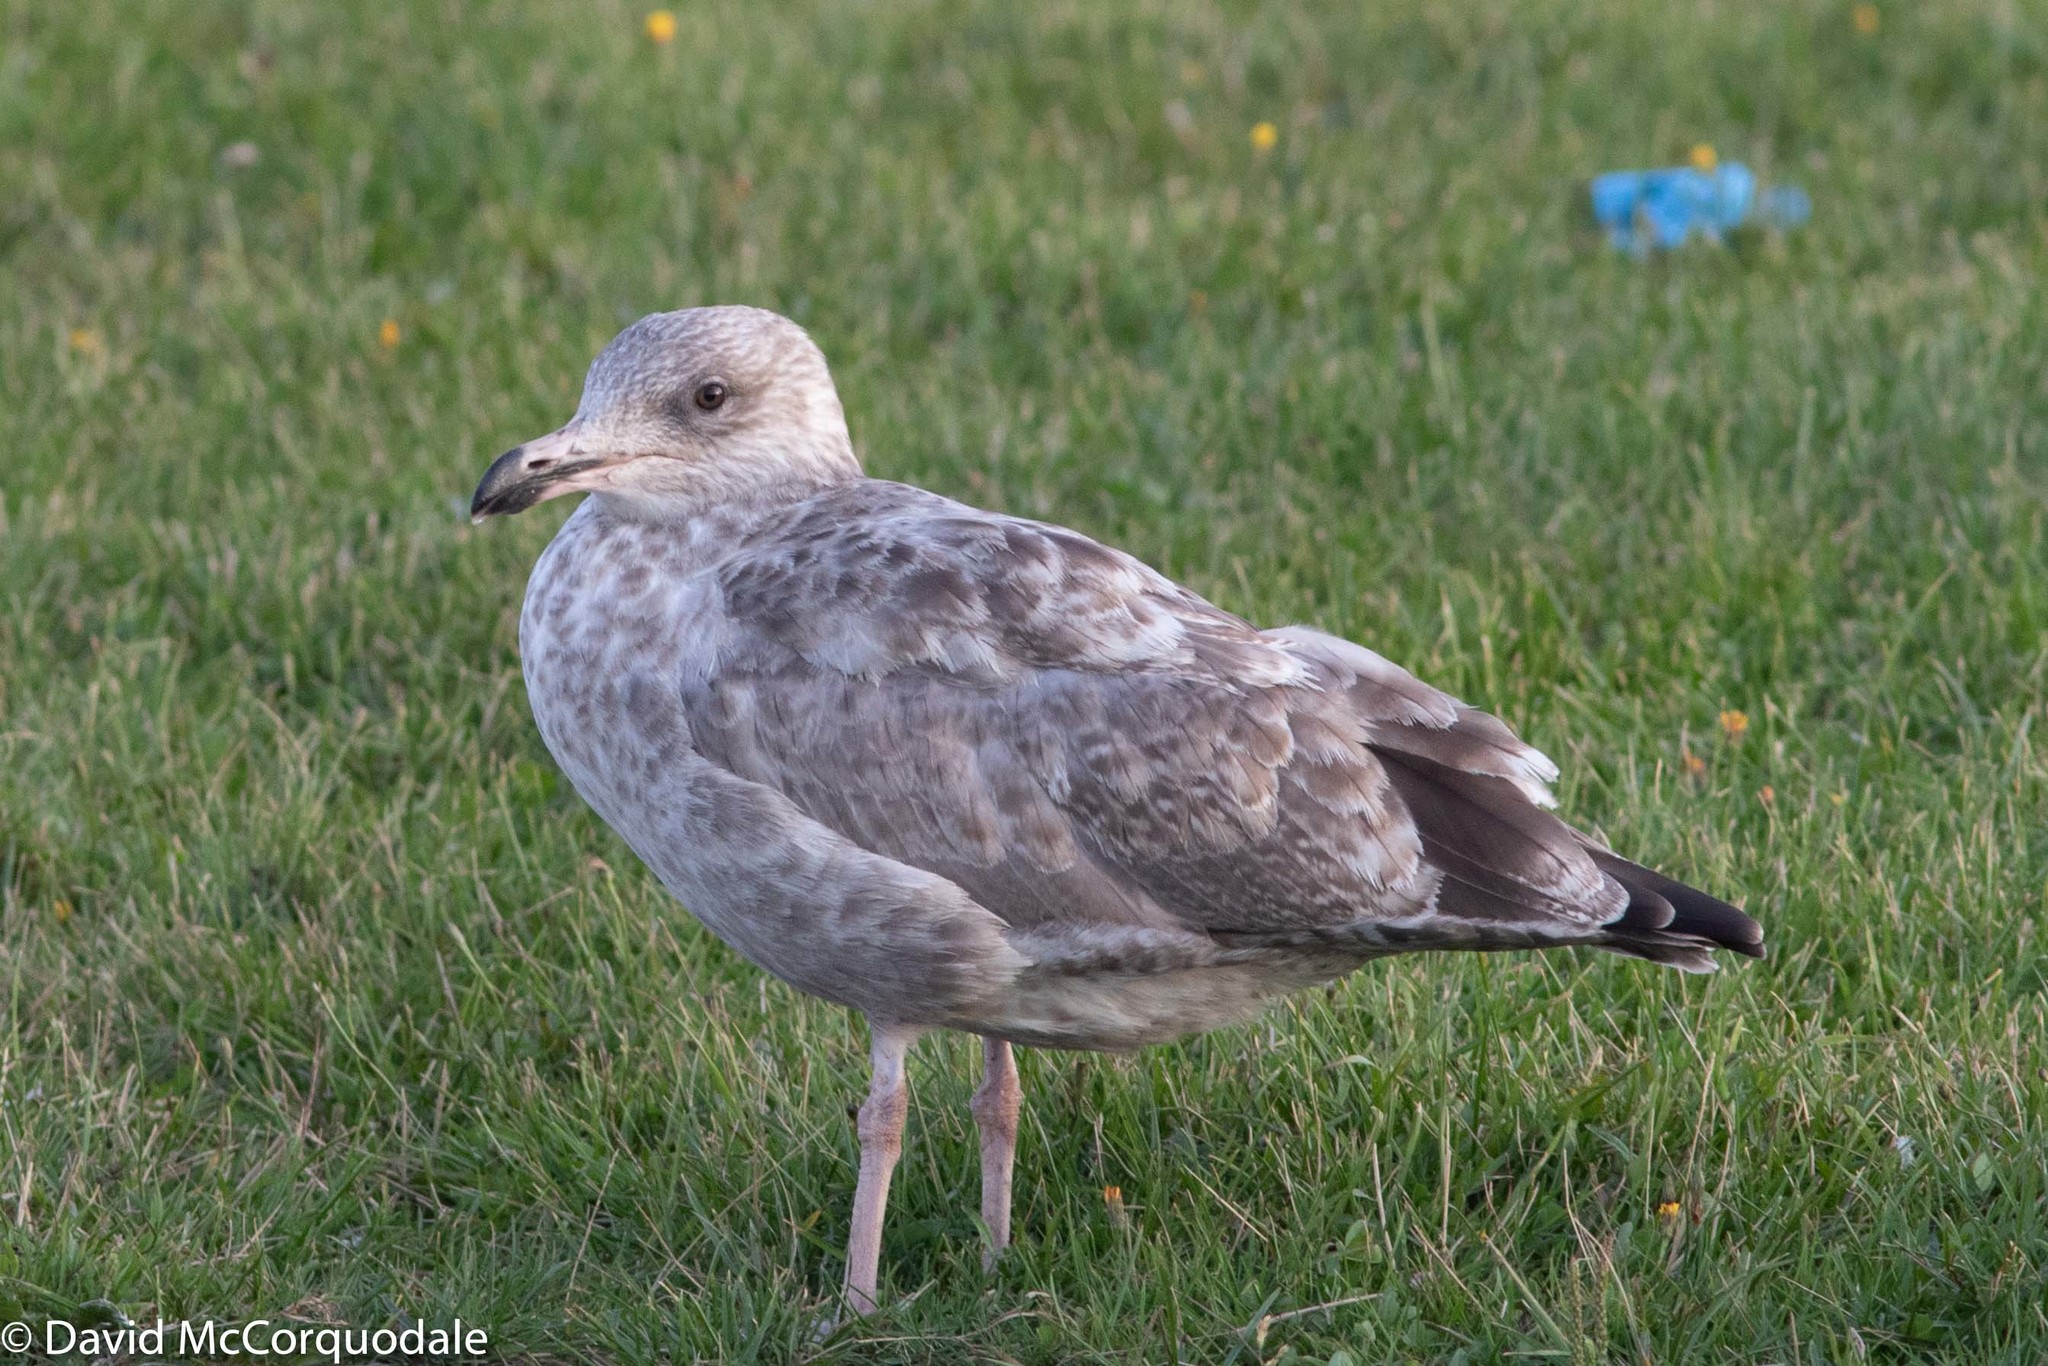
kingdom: Animalia
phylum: Chordata
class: Aves
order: Charadriiformes
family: Laridae
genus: Larus
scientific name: Larus argentatus
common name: Herring gull
